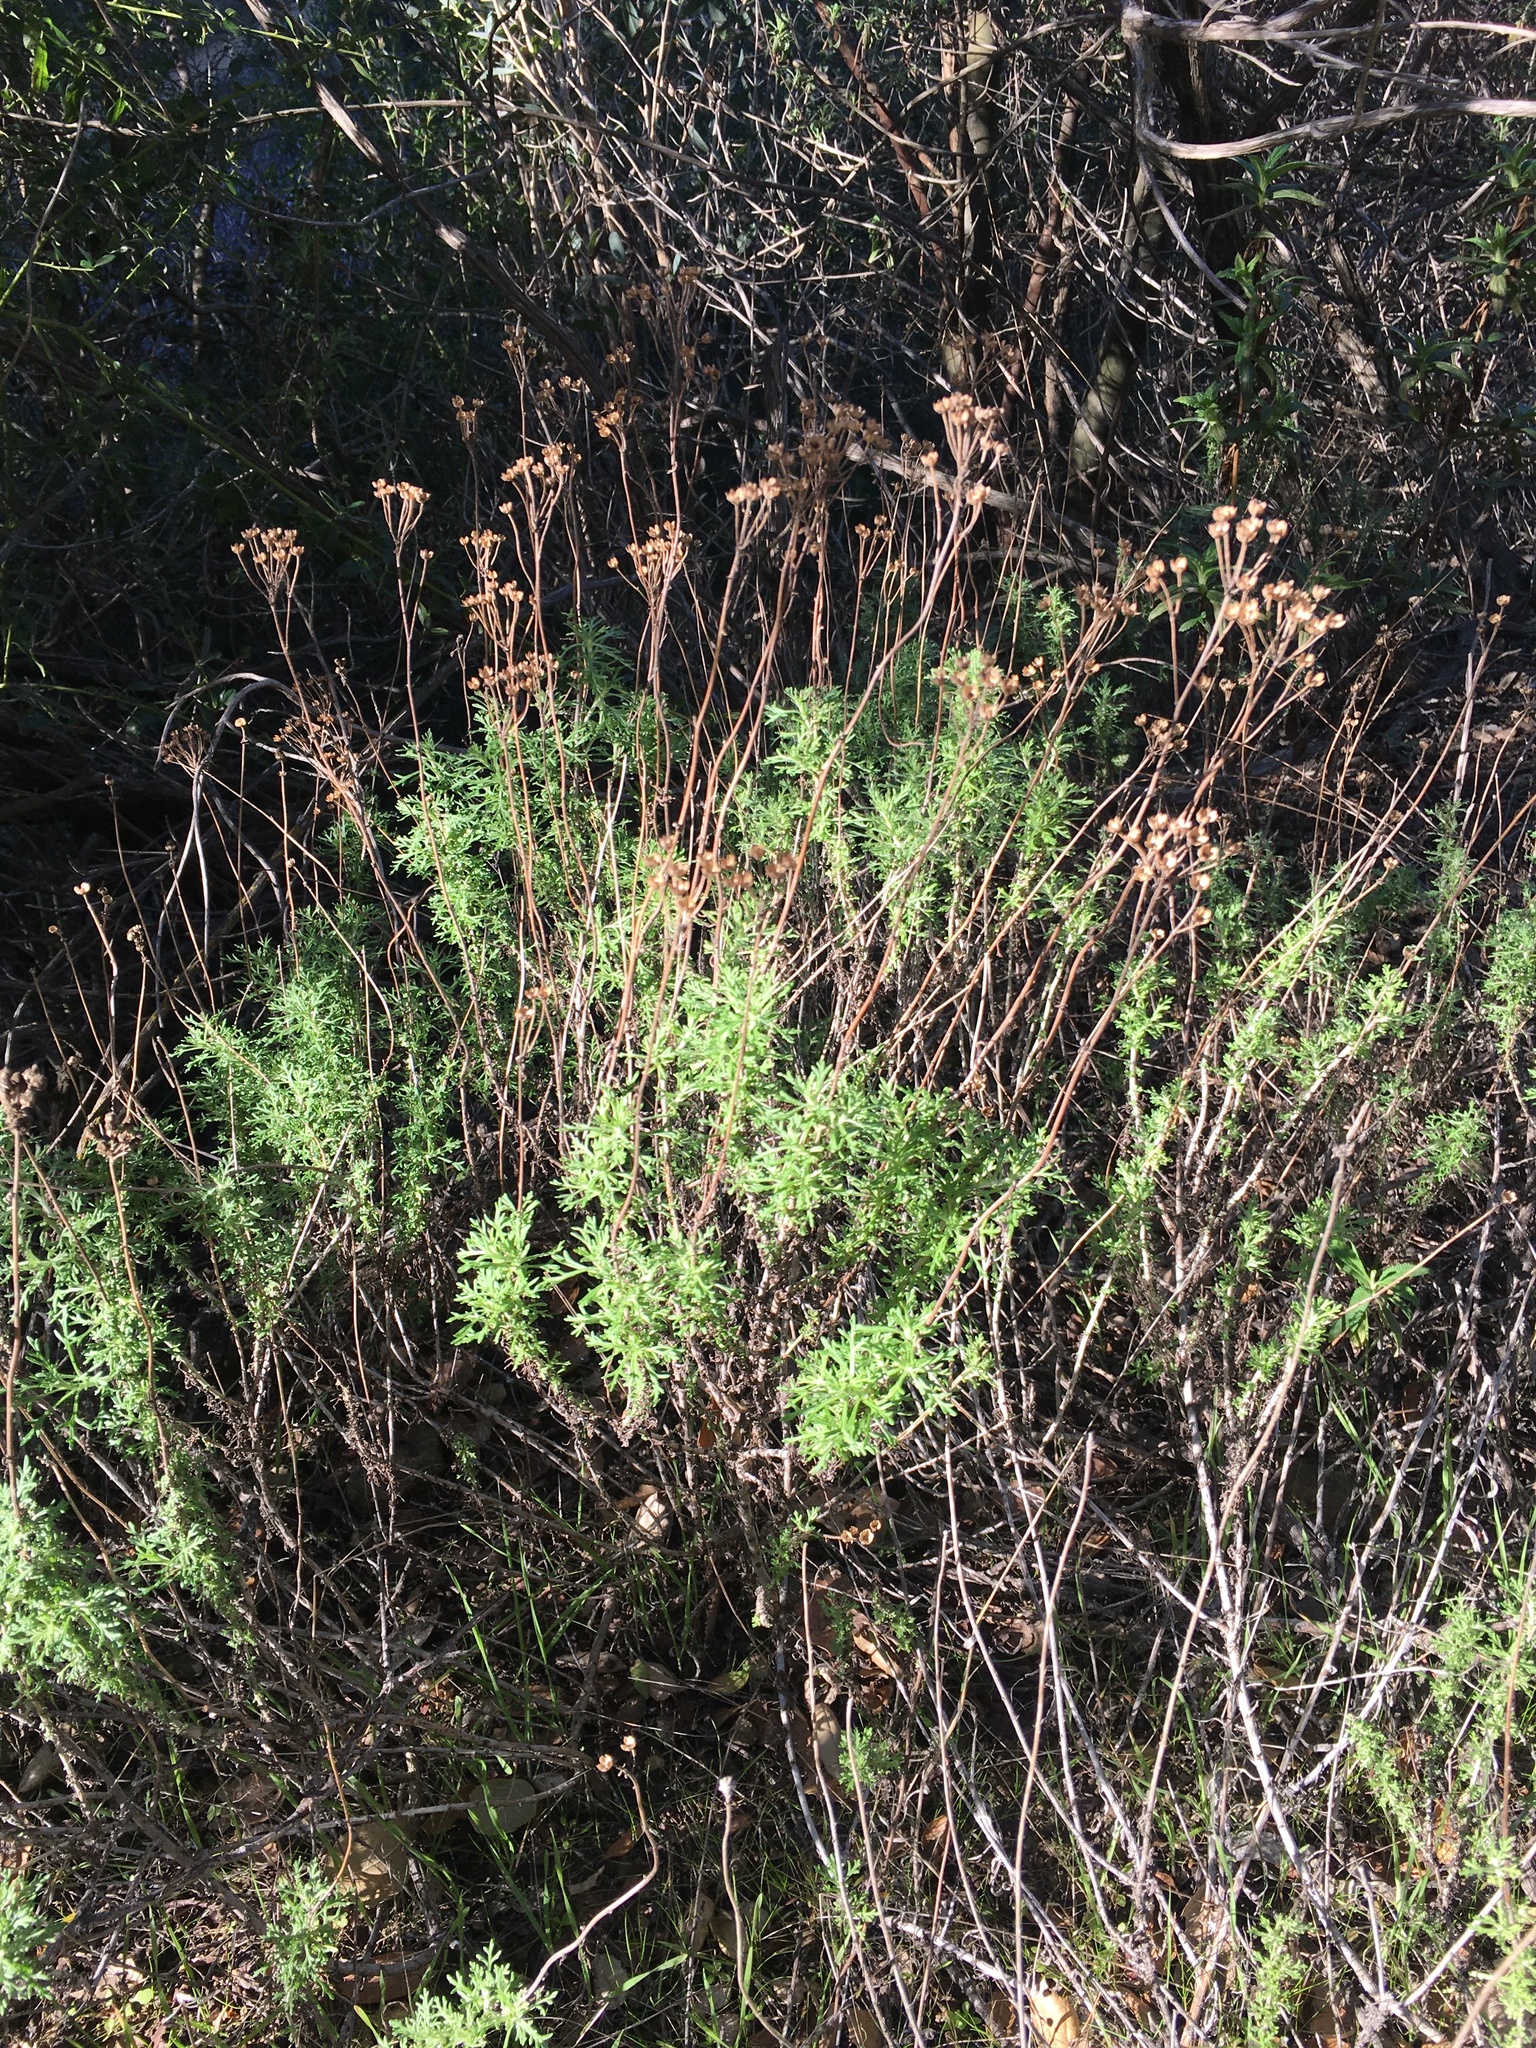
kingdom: Plantae
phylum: Tracheophyta
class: Magnoliopsida
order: Asterales
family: Asteraceae
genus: Eriophyllum
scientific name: Eriophyllum confertiflorum
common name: Golden-yarrow
